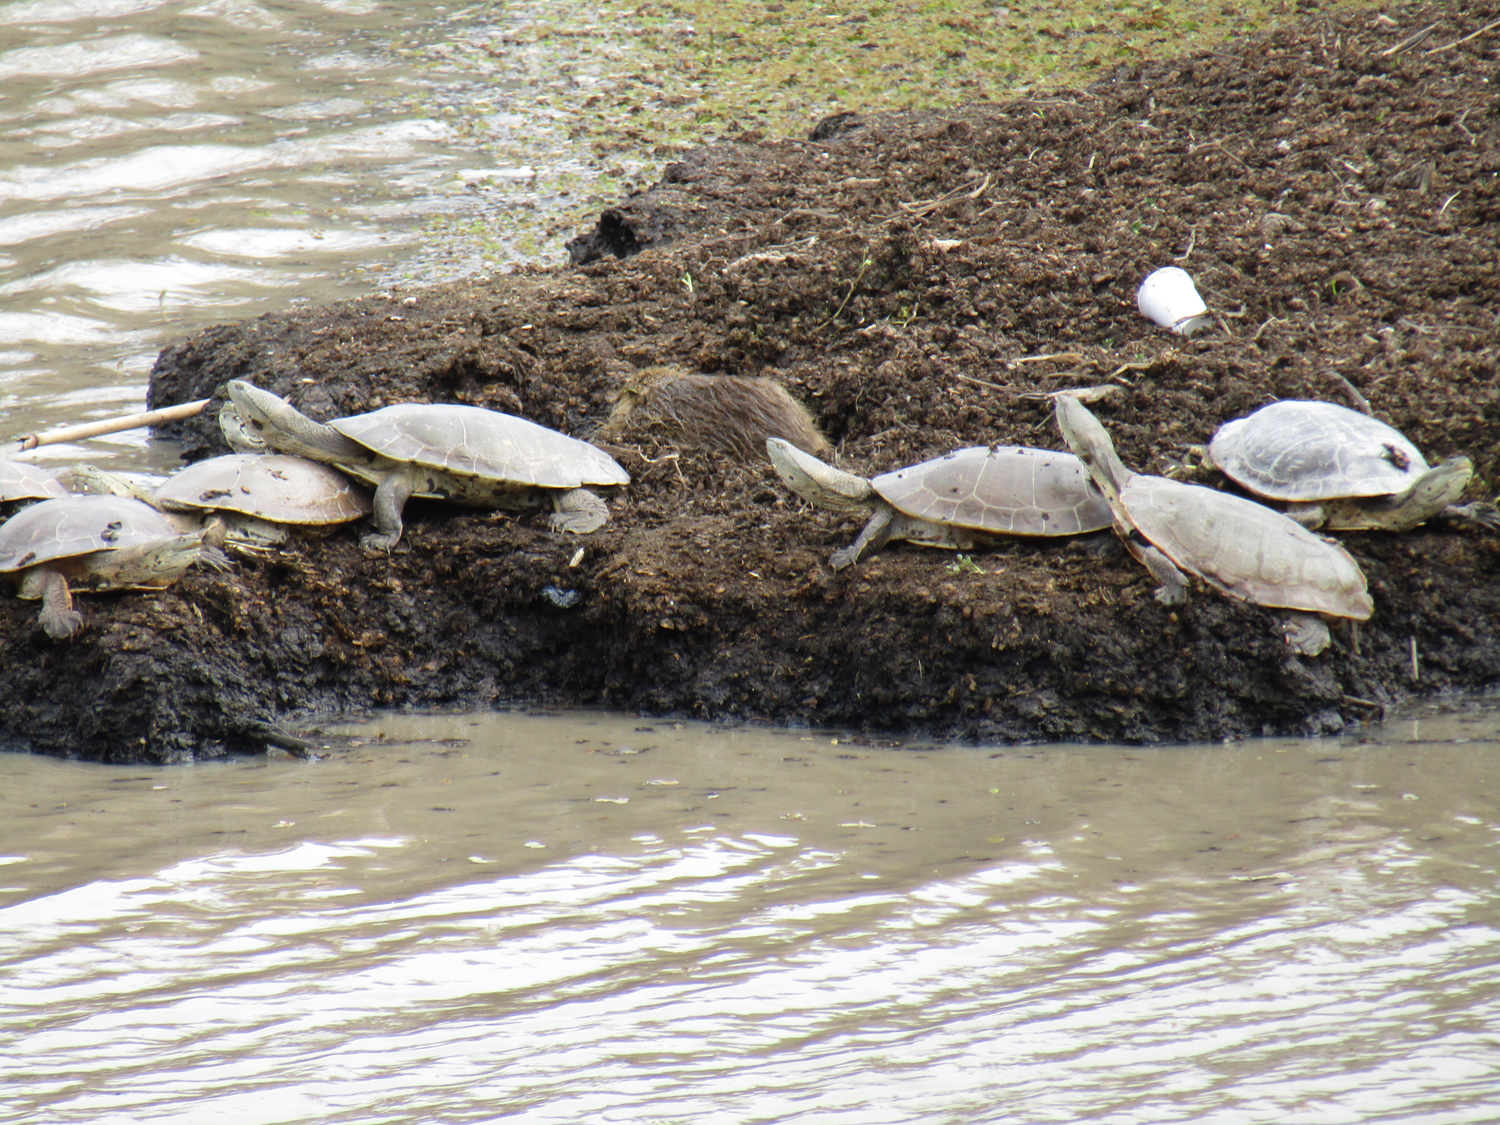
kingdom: Animalia
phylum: Chordata
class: Testudines
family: Chelidae
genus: Phrynops
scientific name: Phrynops hilarii
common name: Side-necked turtle of saint hillaire
